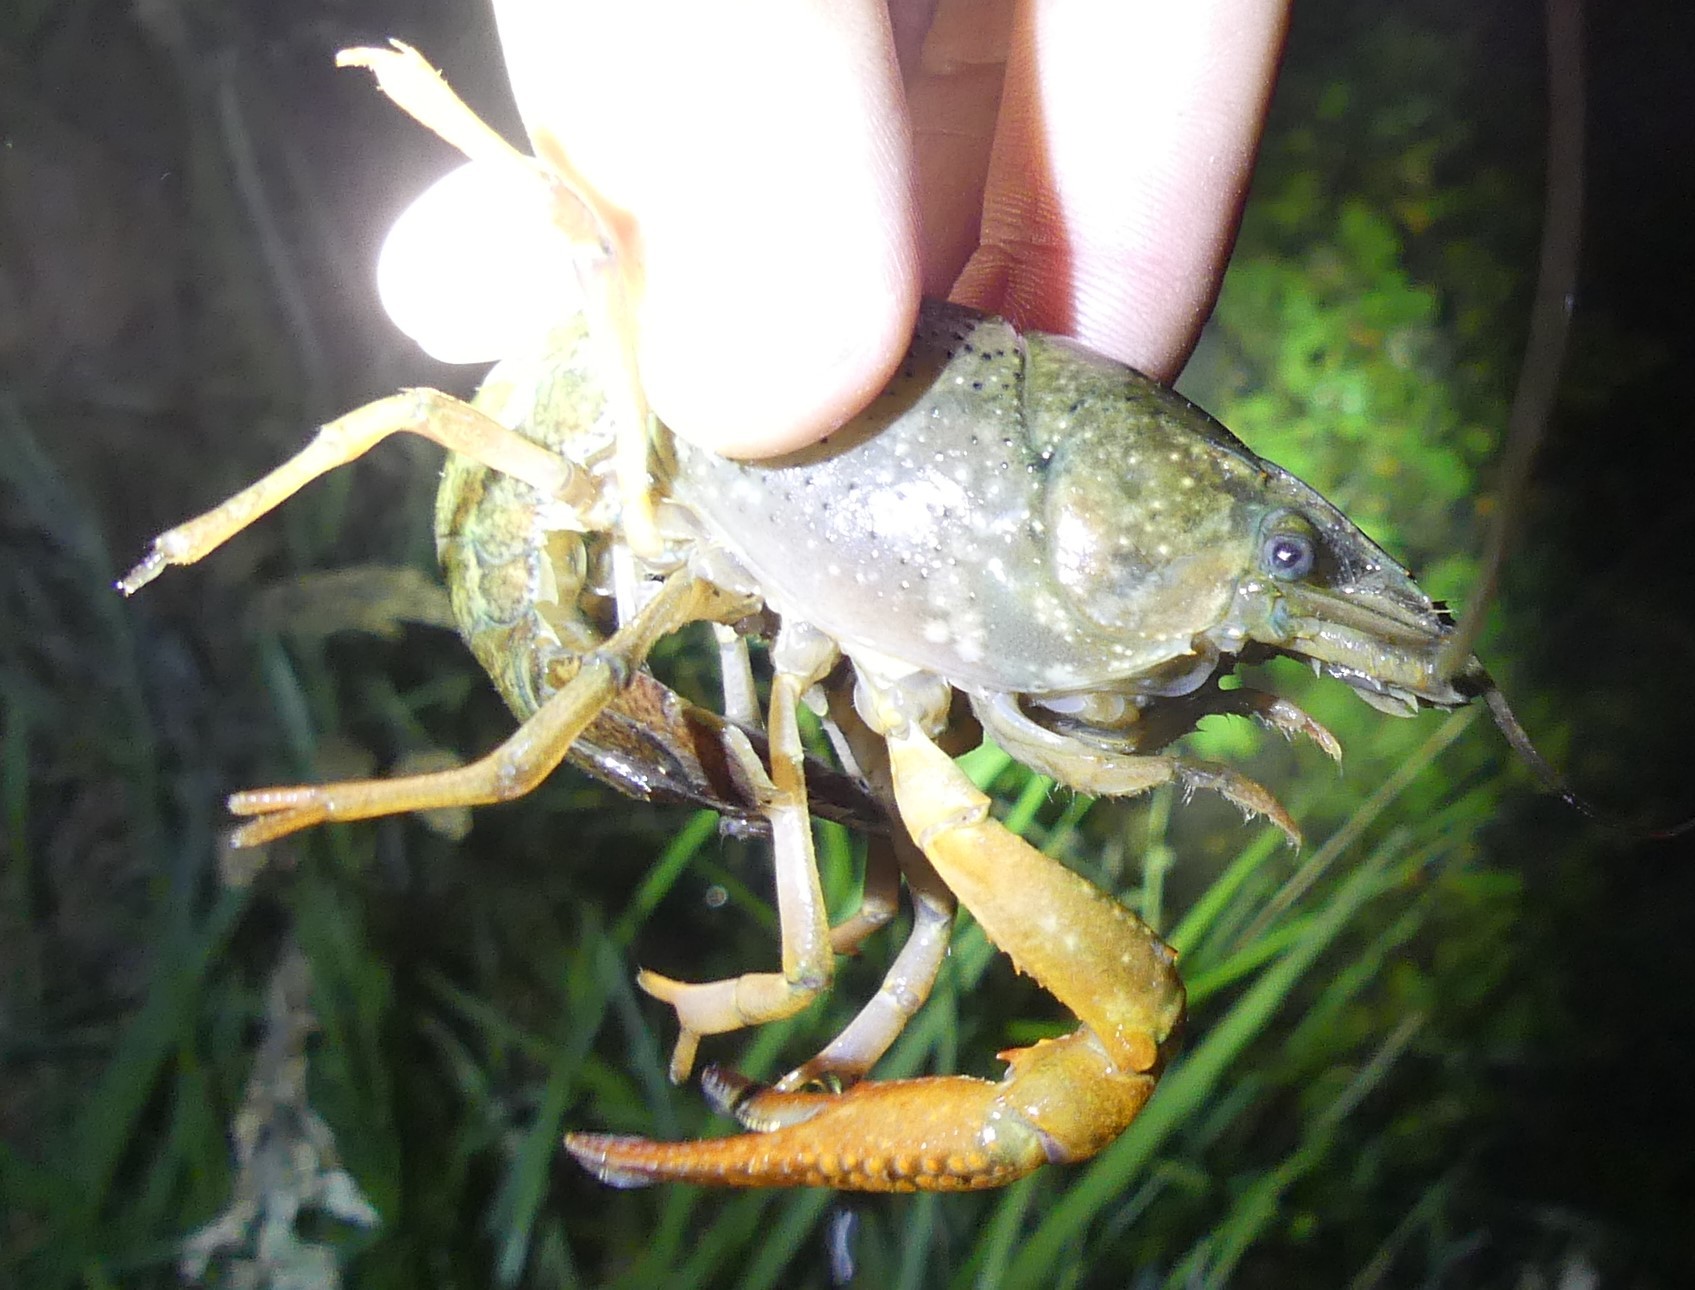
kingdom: Animalia
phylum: Arthropoda
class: Malacostraca
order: Decapoda
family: Cambaridae
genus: Procambarus
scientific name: Procambarus clarkii
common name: Red swamp crayfish
